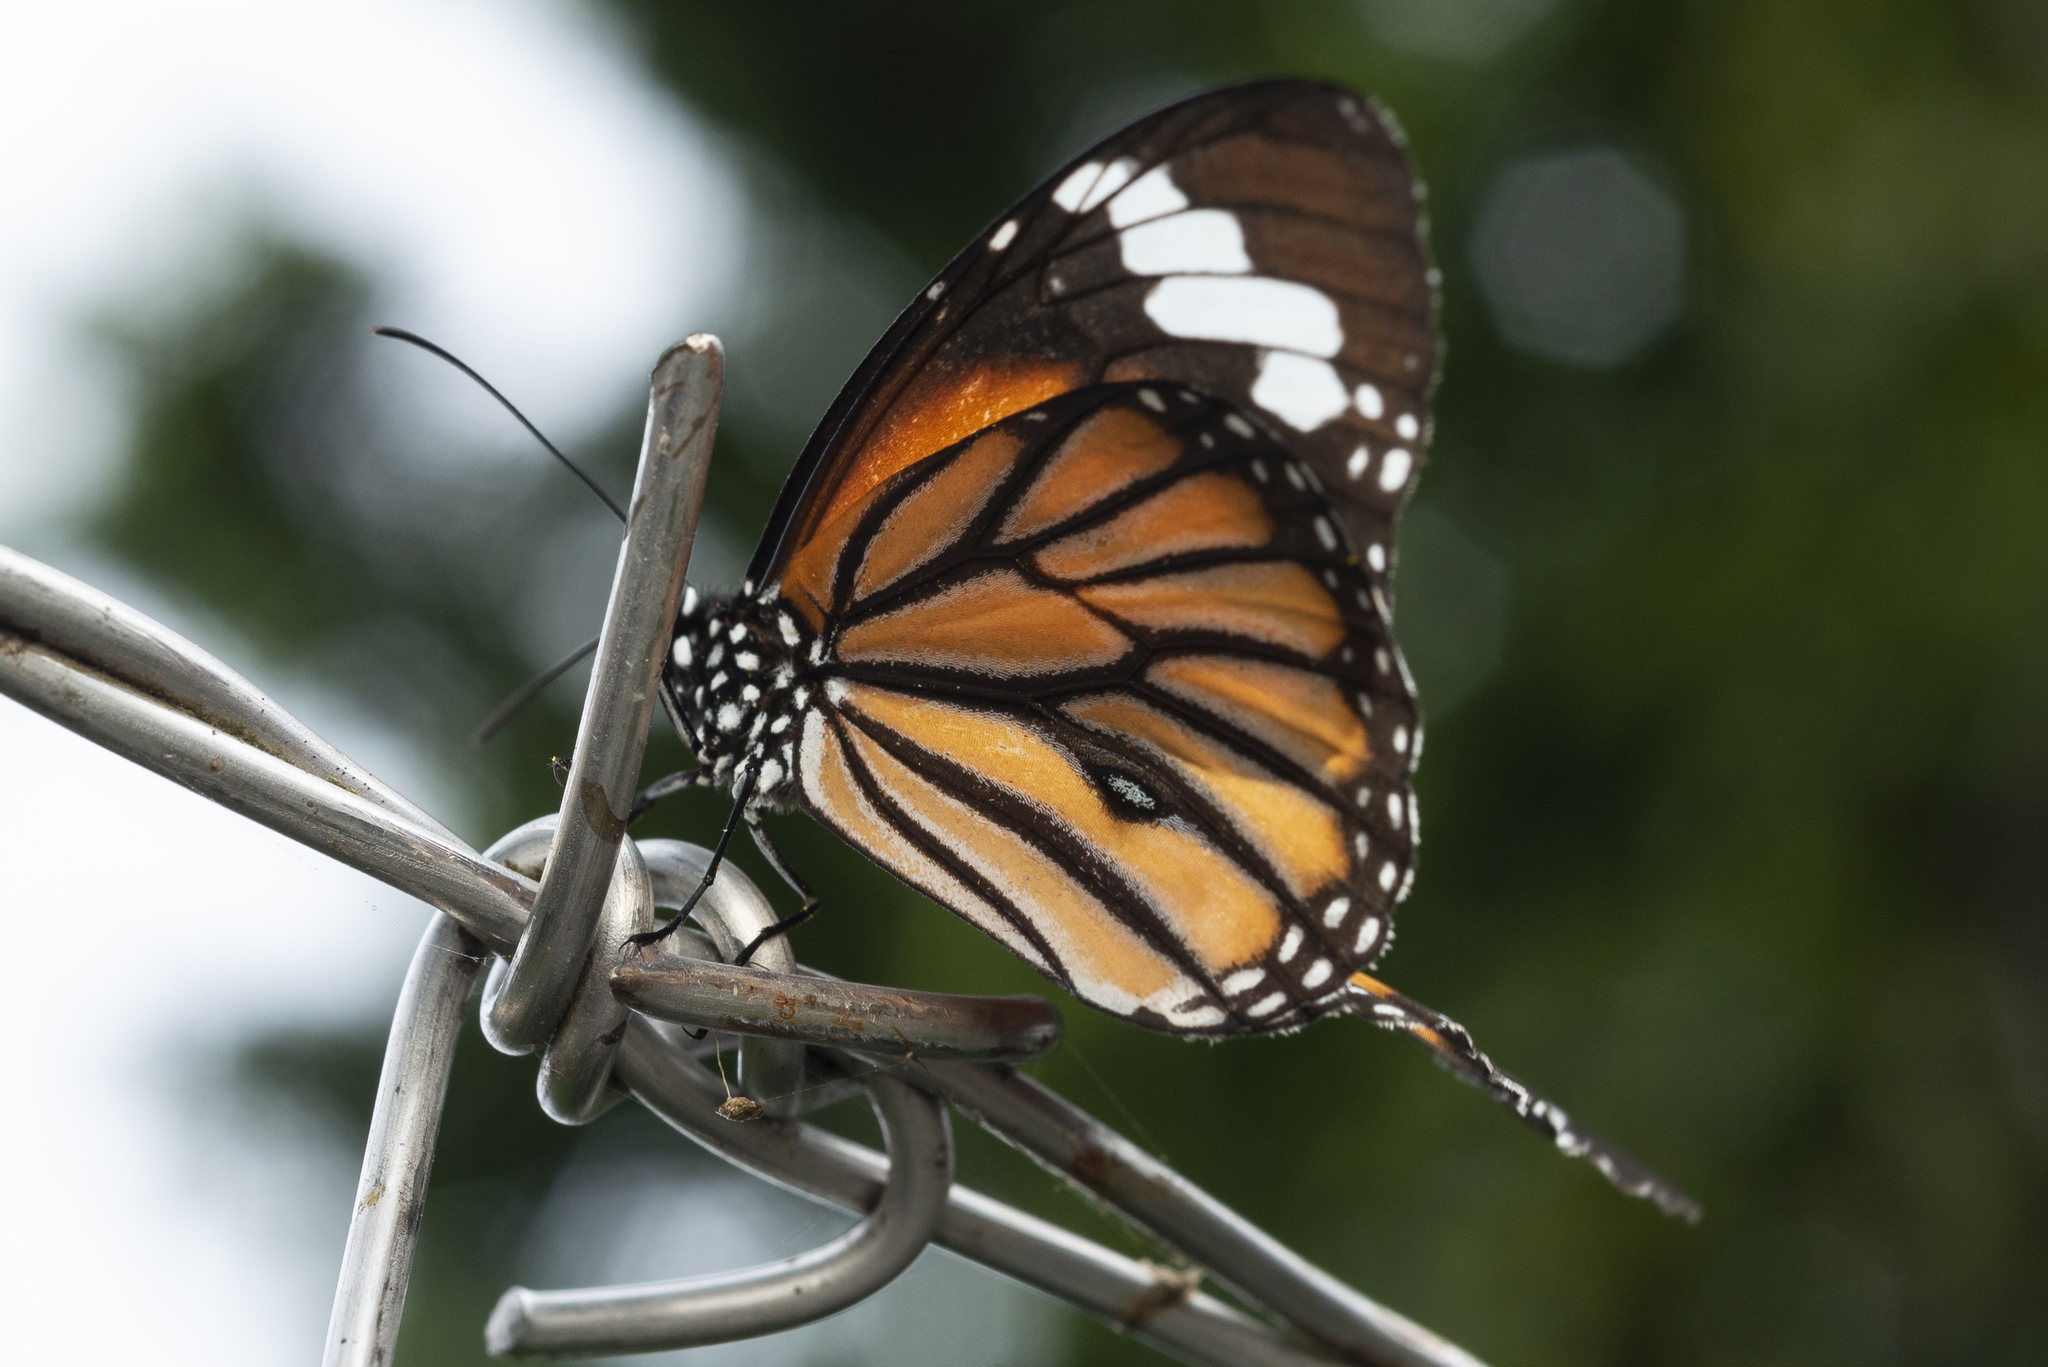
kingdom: Animalia
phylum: Arthropoda
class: Insecta
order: Lepidoptera
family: Nymphalidae
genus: Danaus
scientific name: Danaus genutia
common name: Common tiger butterfly
